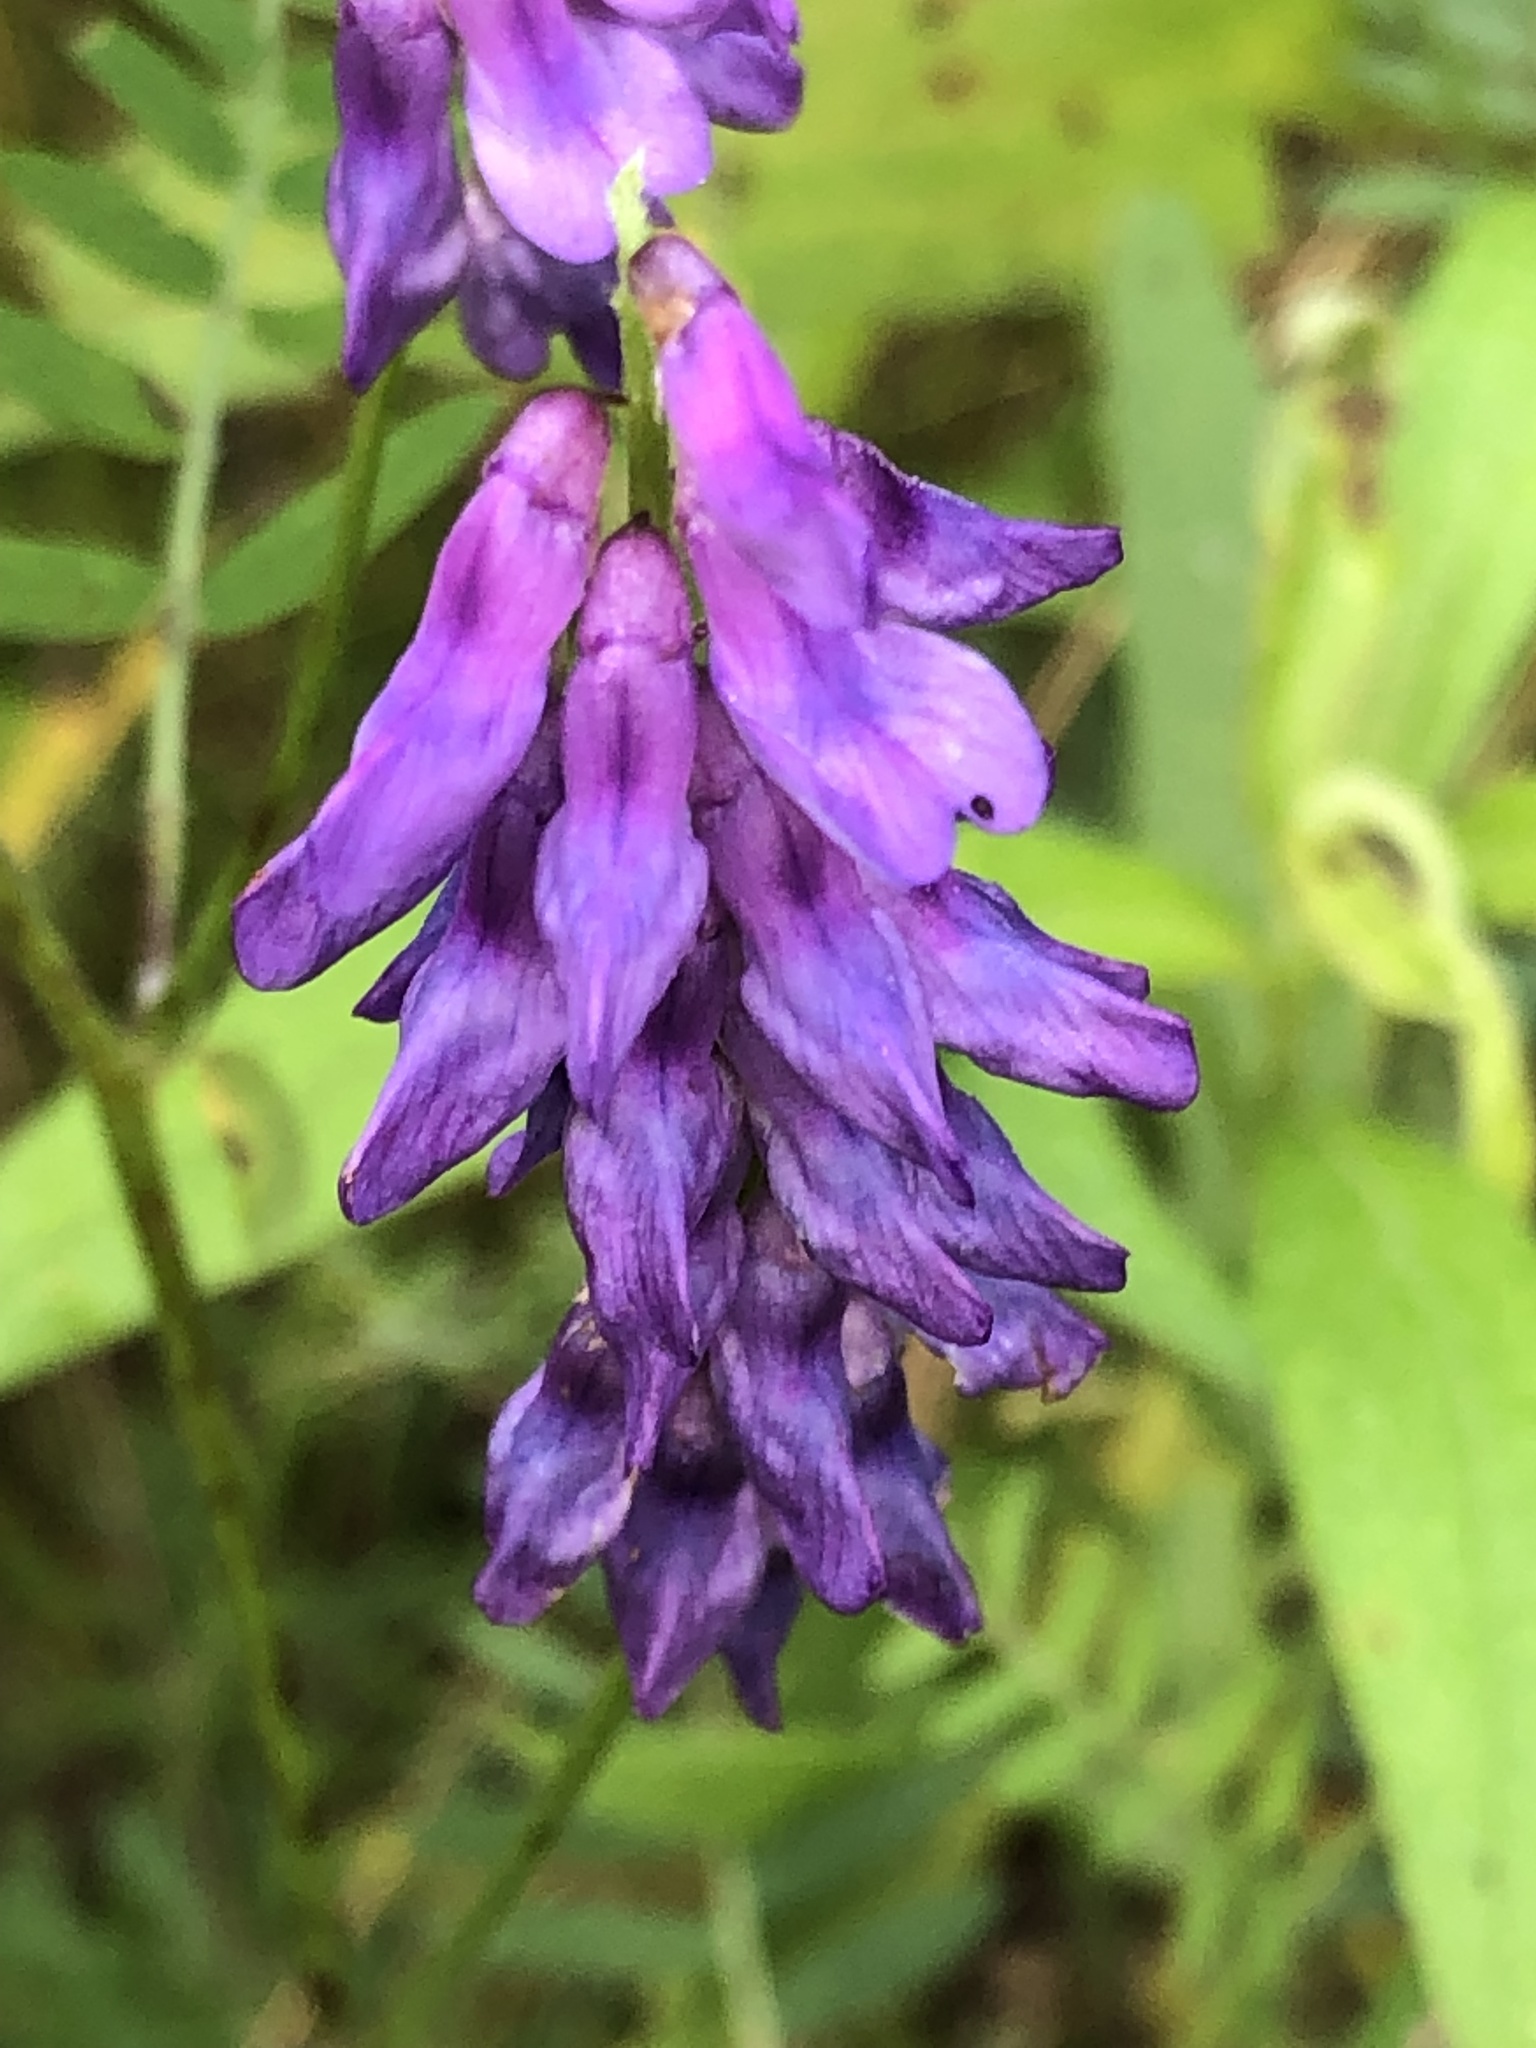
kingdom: Plantae
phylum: Tracheophyta
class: Magnoliopsida
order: Fabales
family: Fabaceae
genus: Vicia
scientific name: Vicia cracca
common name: Bird vetch
